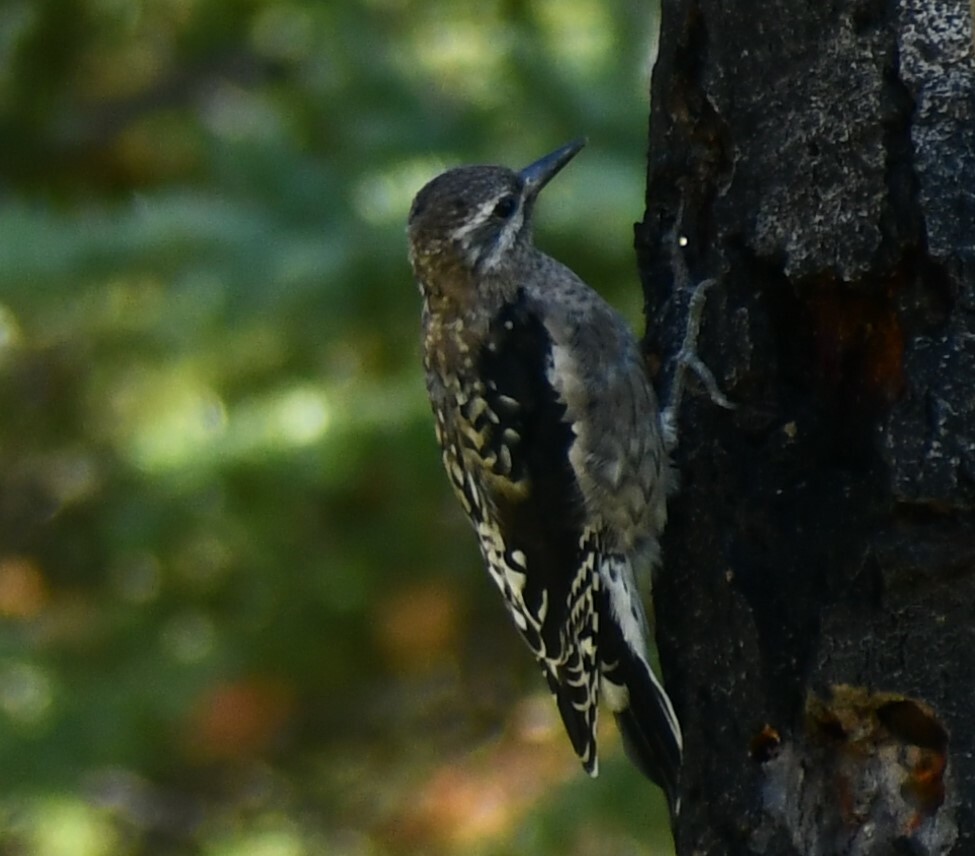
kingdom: Animalia
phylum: Chordata
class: Aves
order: Piciformes
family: Picidae
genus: Sphyrapicus
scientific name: Sphyrapicus varius
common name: Yellow-bellied sapsucker
